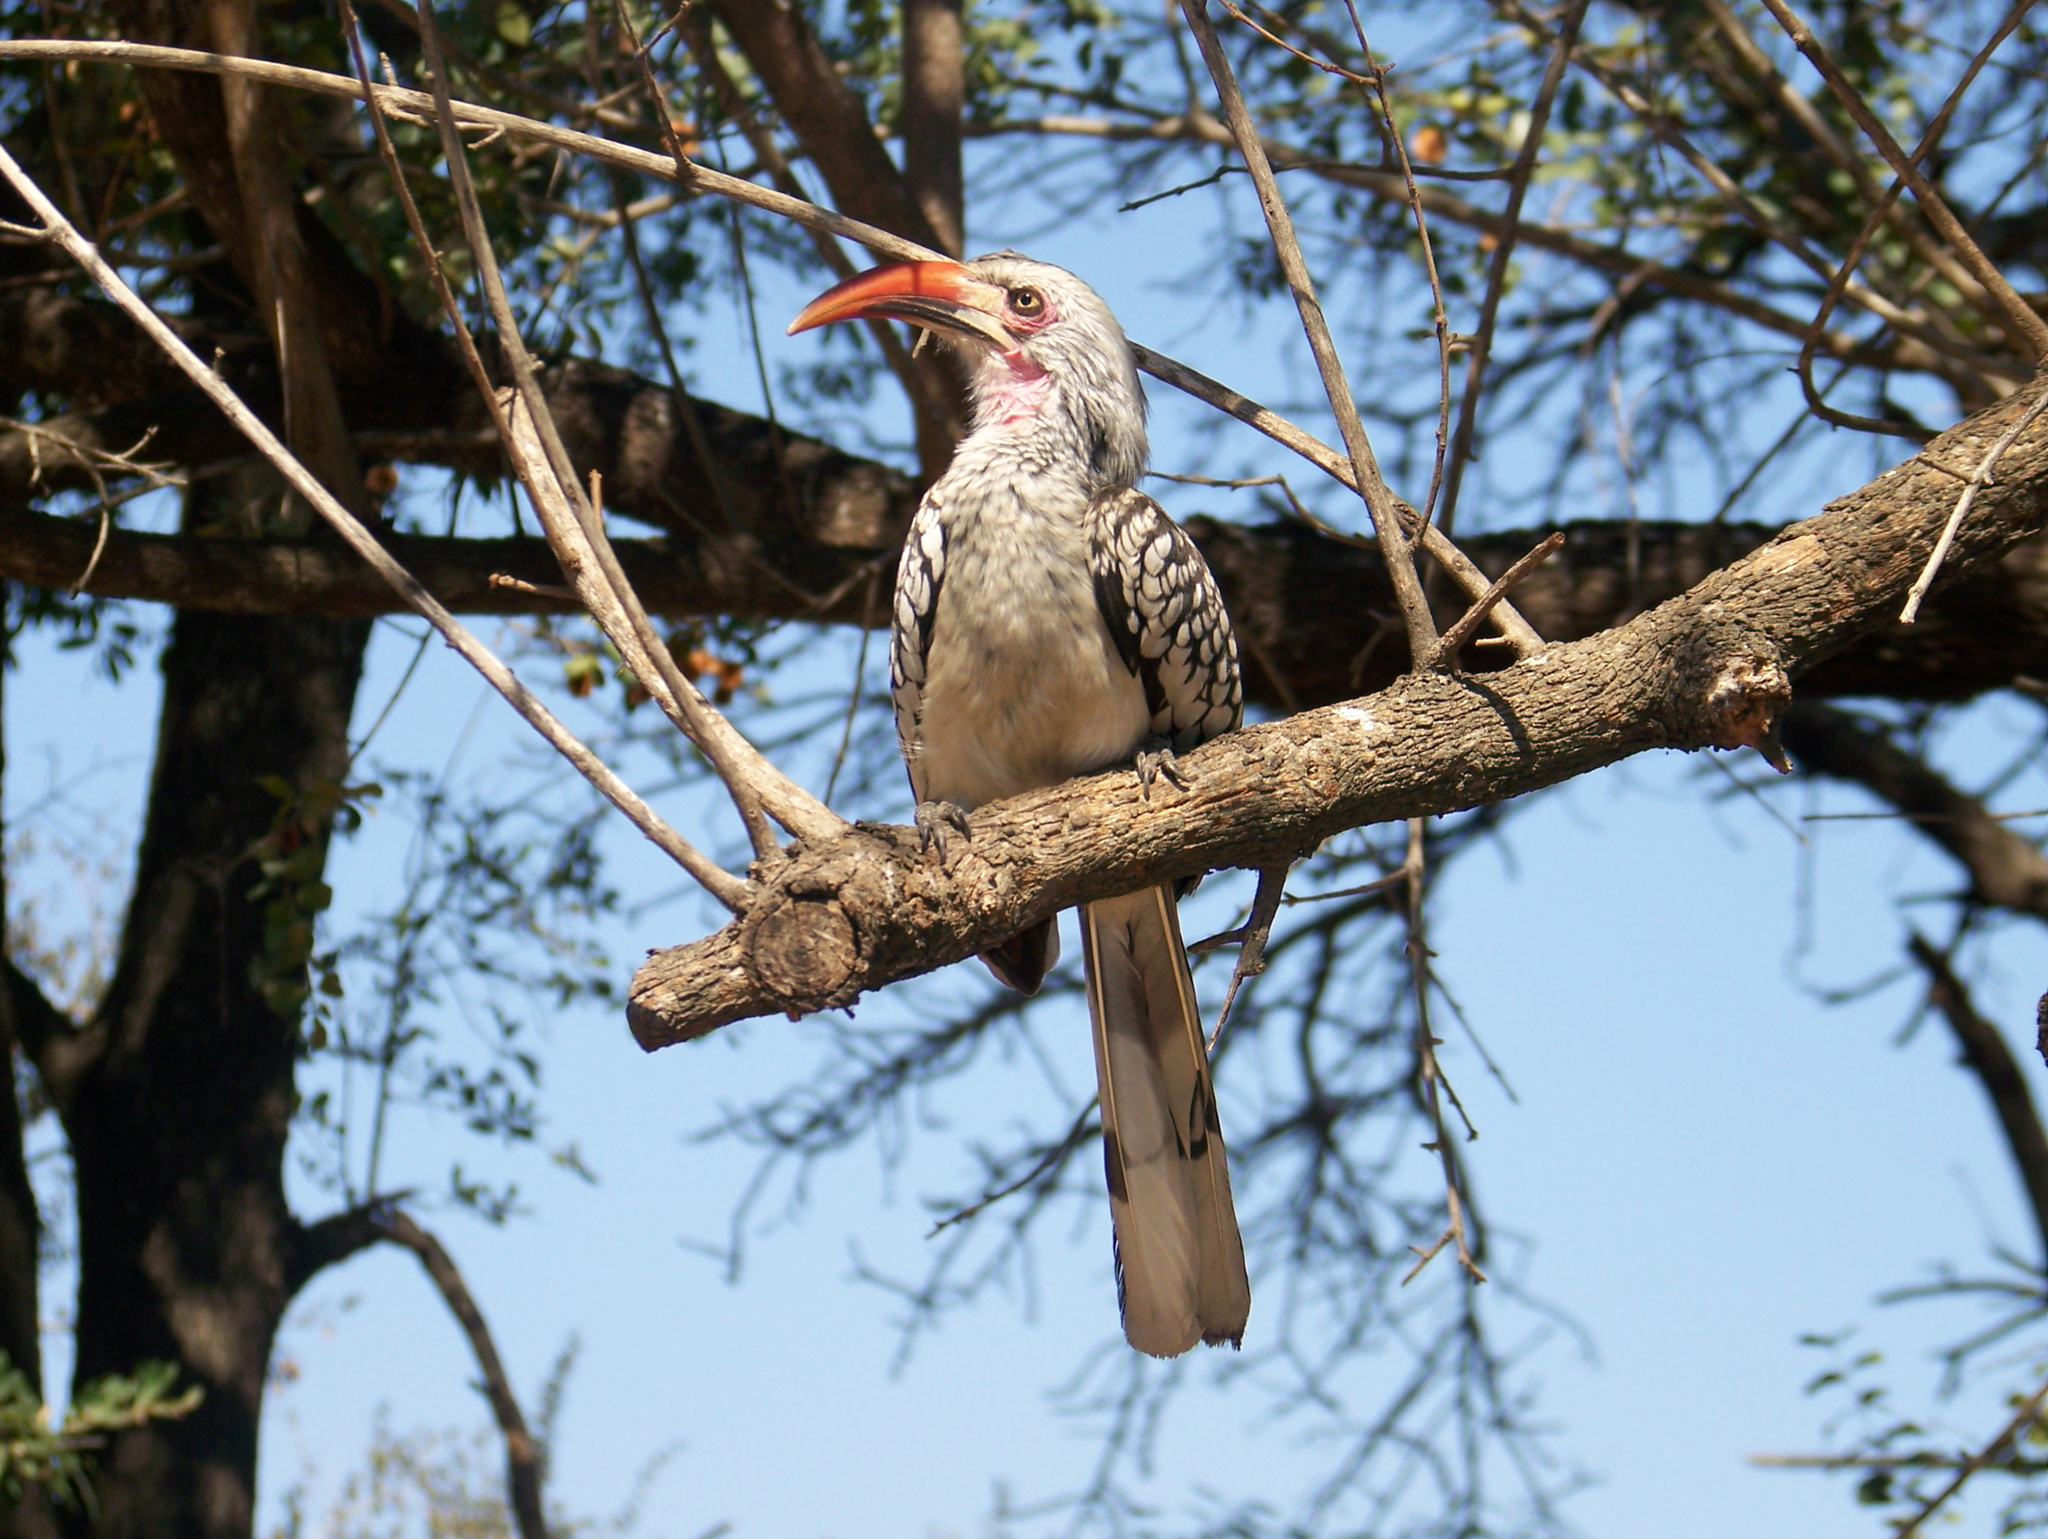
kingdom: Animalia
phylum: Chordata
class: Aves
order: Bucerotiformes
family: Bucerotidae
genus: Tockus
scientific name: Tockus rufirostris
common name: Southern red-billed hornbill
